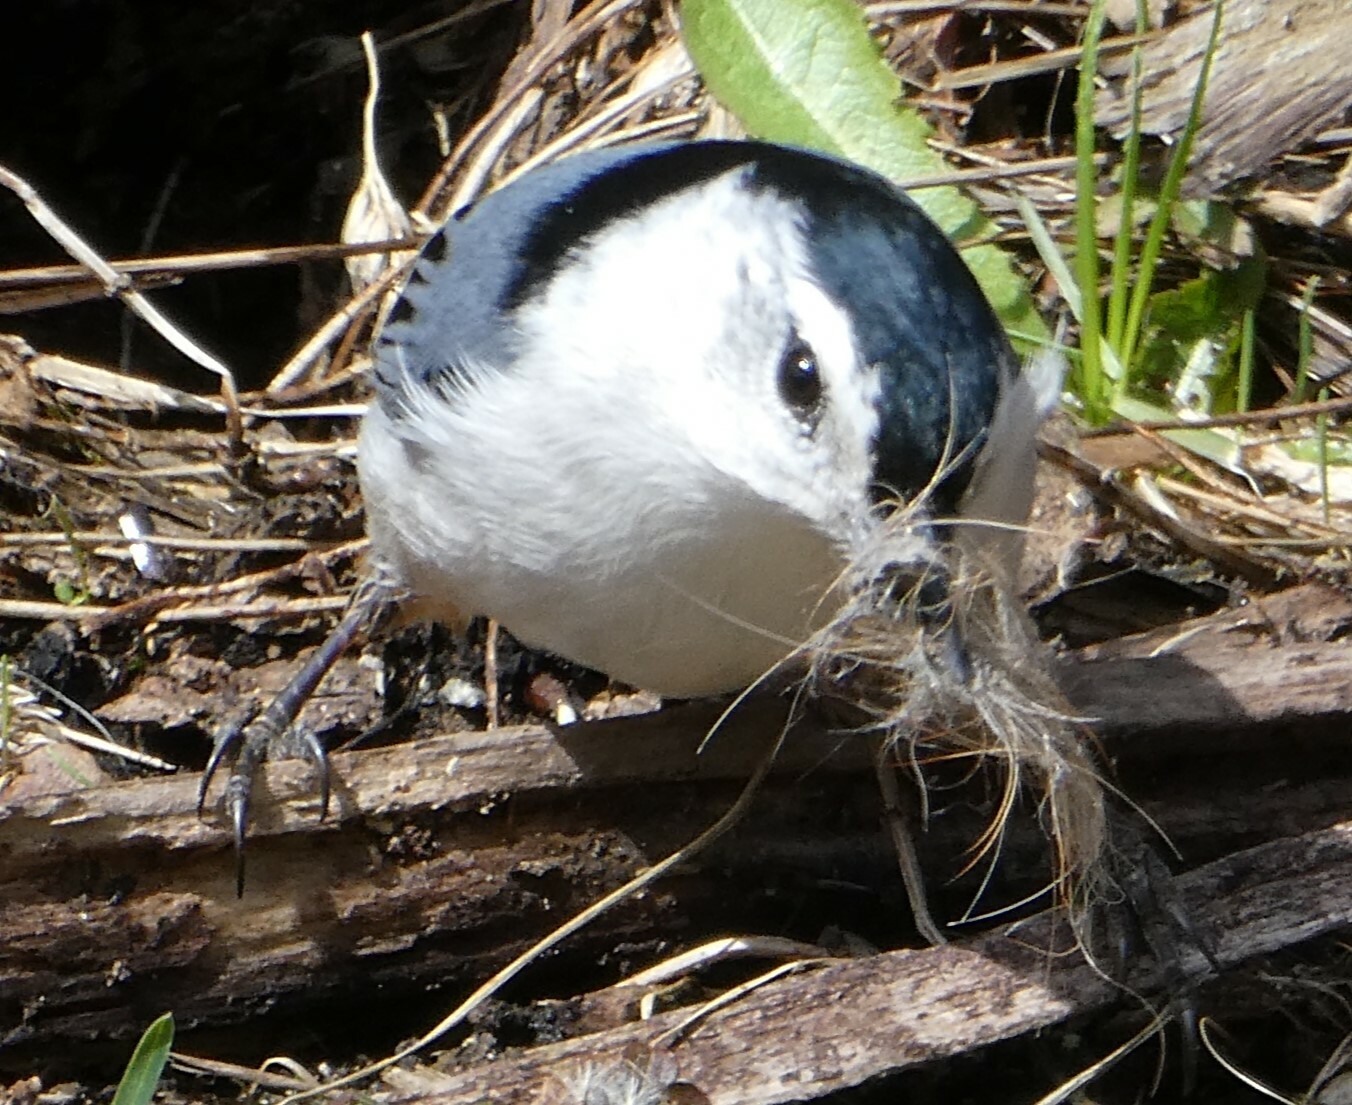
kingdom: Animalia
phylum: Chordata
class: Aves
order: Passeriformes
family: Sittidae
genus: Sitta
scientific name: Sitta carolinensis
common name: White-breasted nuthatch
